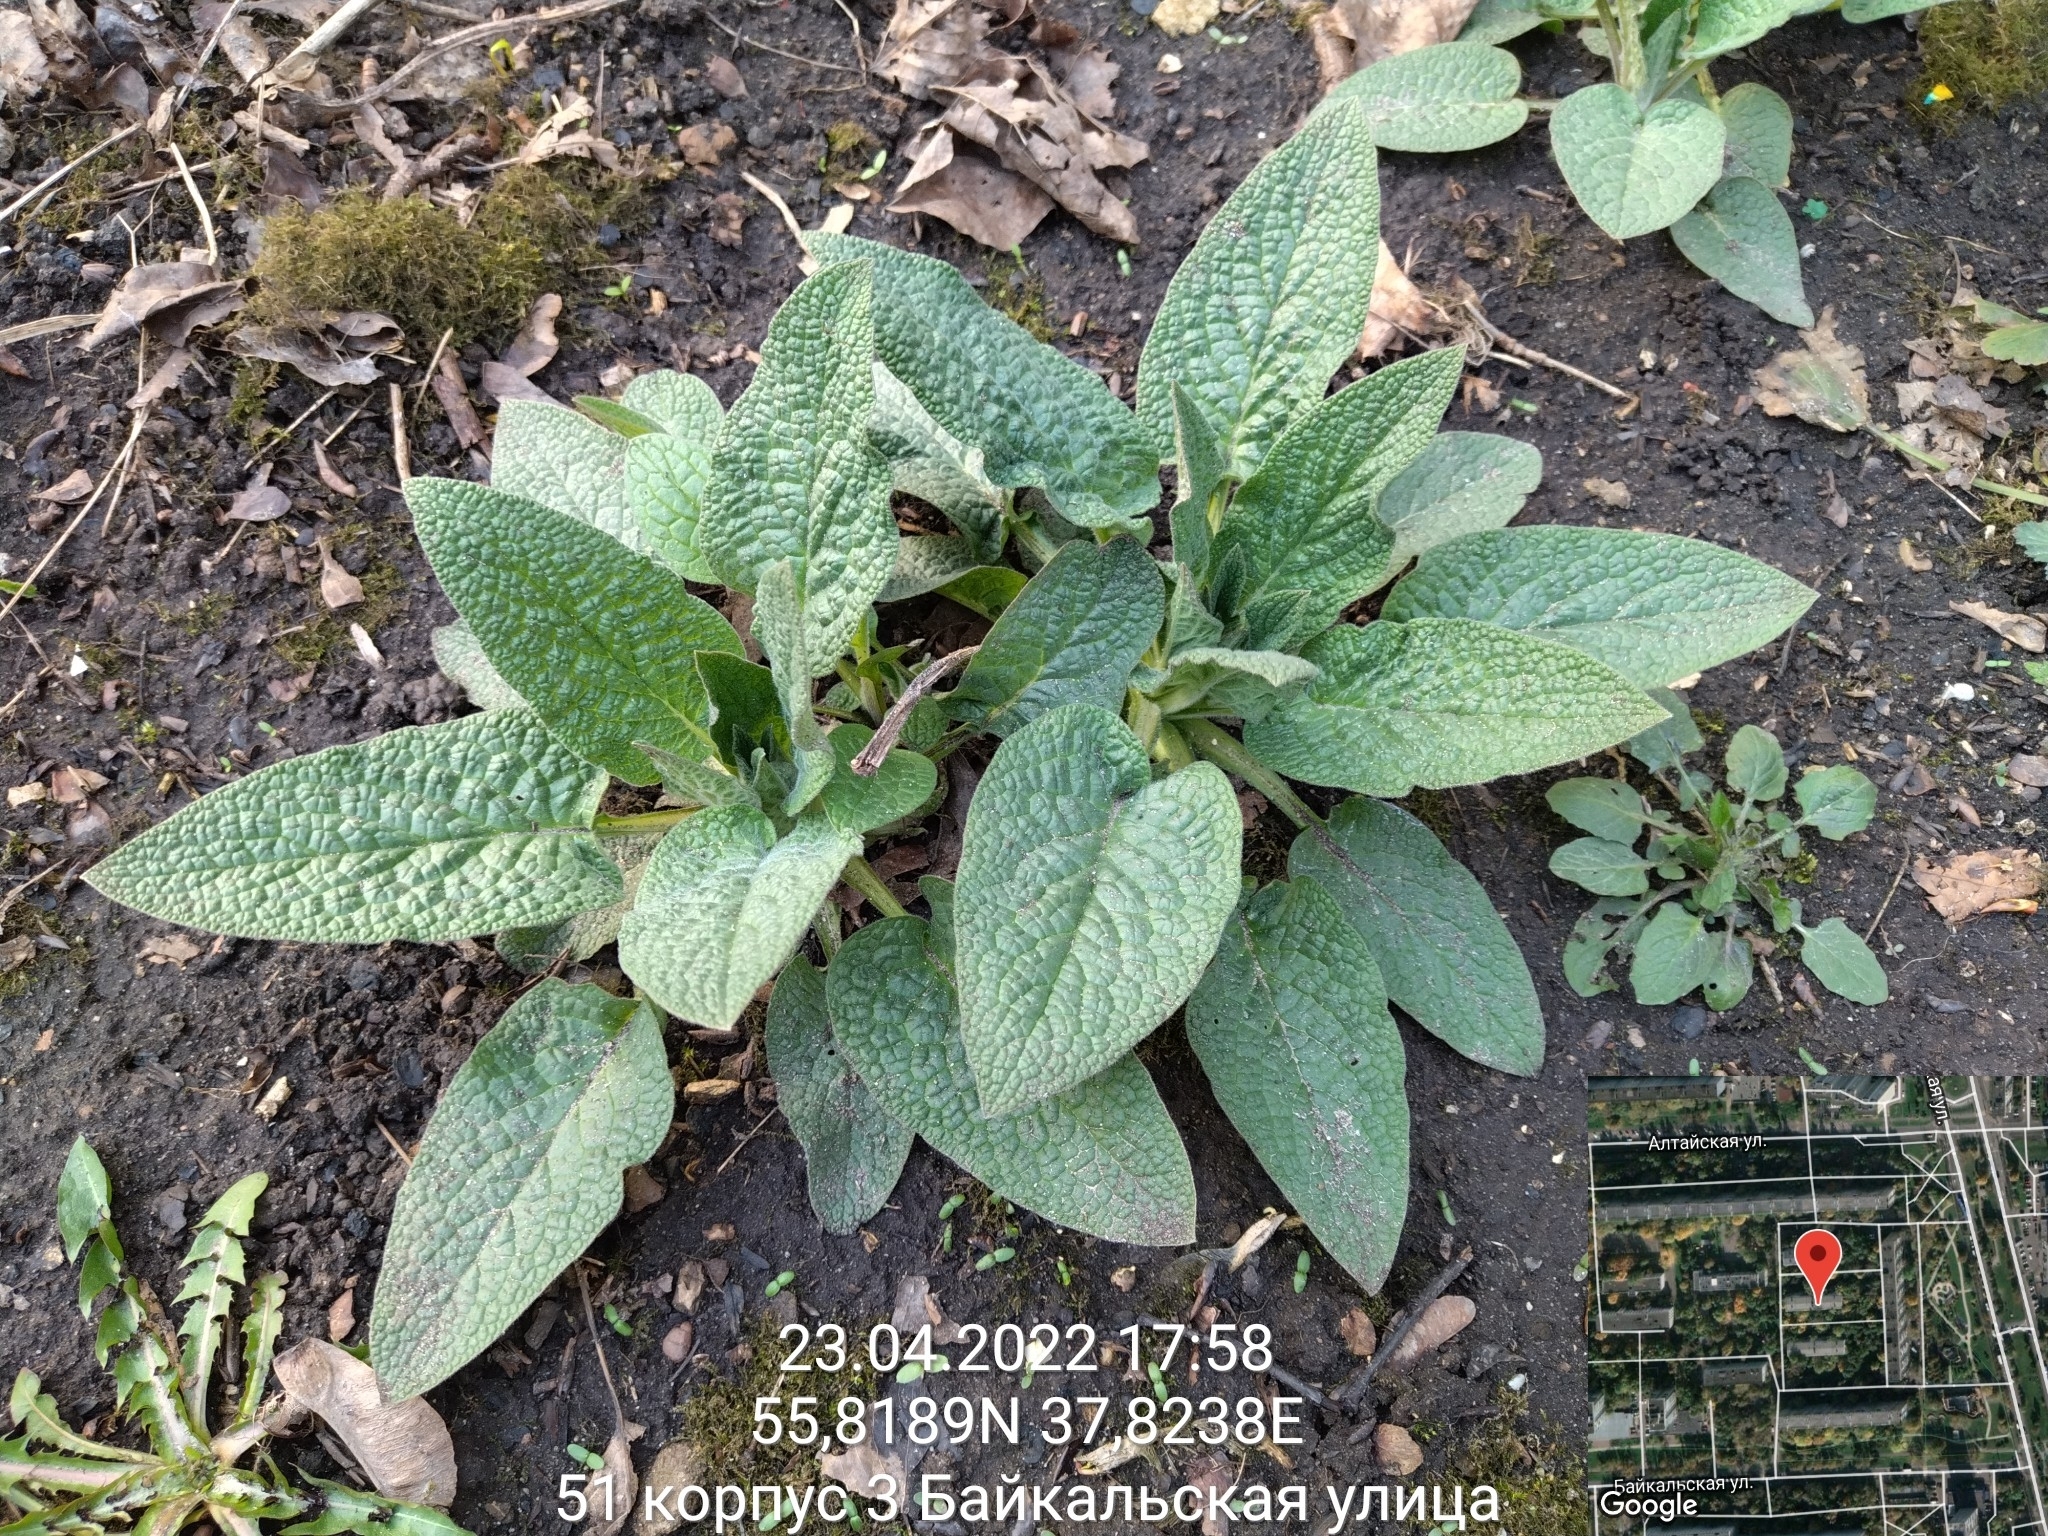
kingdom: Plantae
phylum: Tracheophyta
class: Magnoliopsida
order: Boraginales
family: Boraginaceae
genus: Symphytum
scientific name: Symphytum
